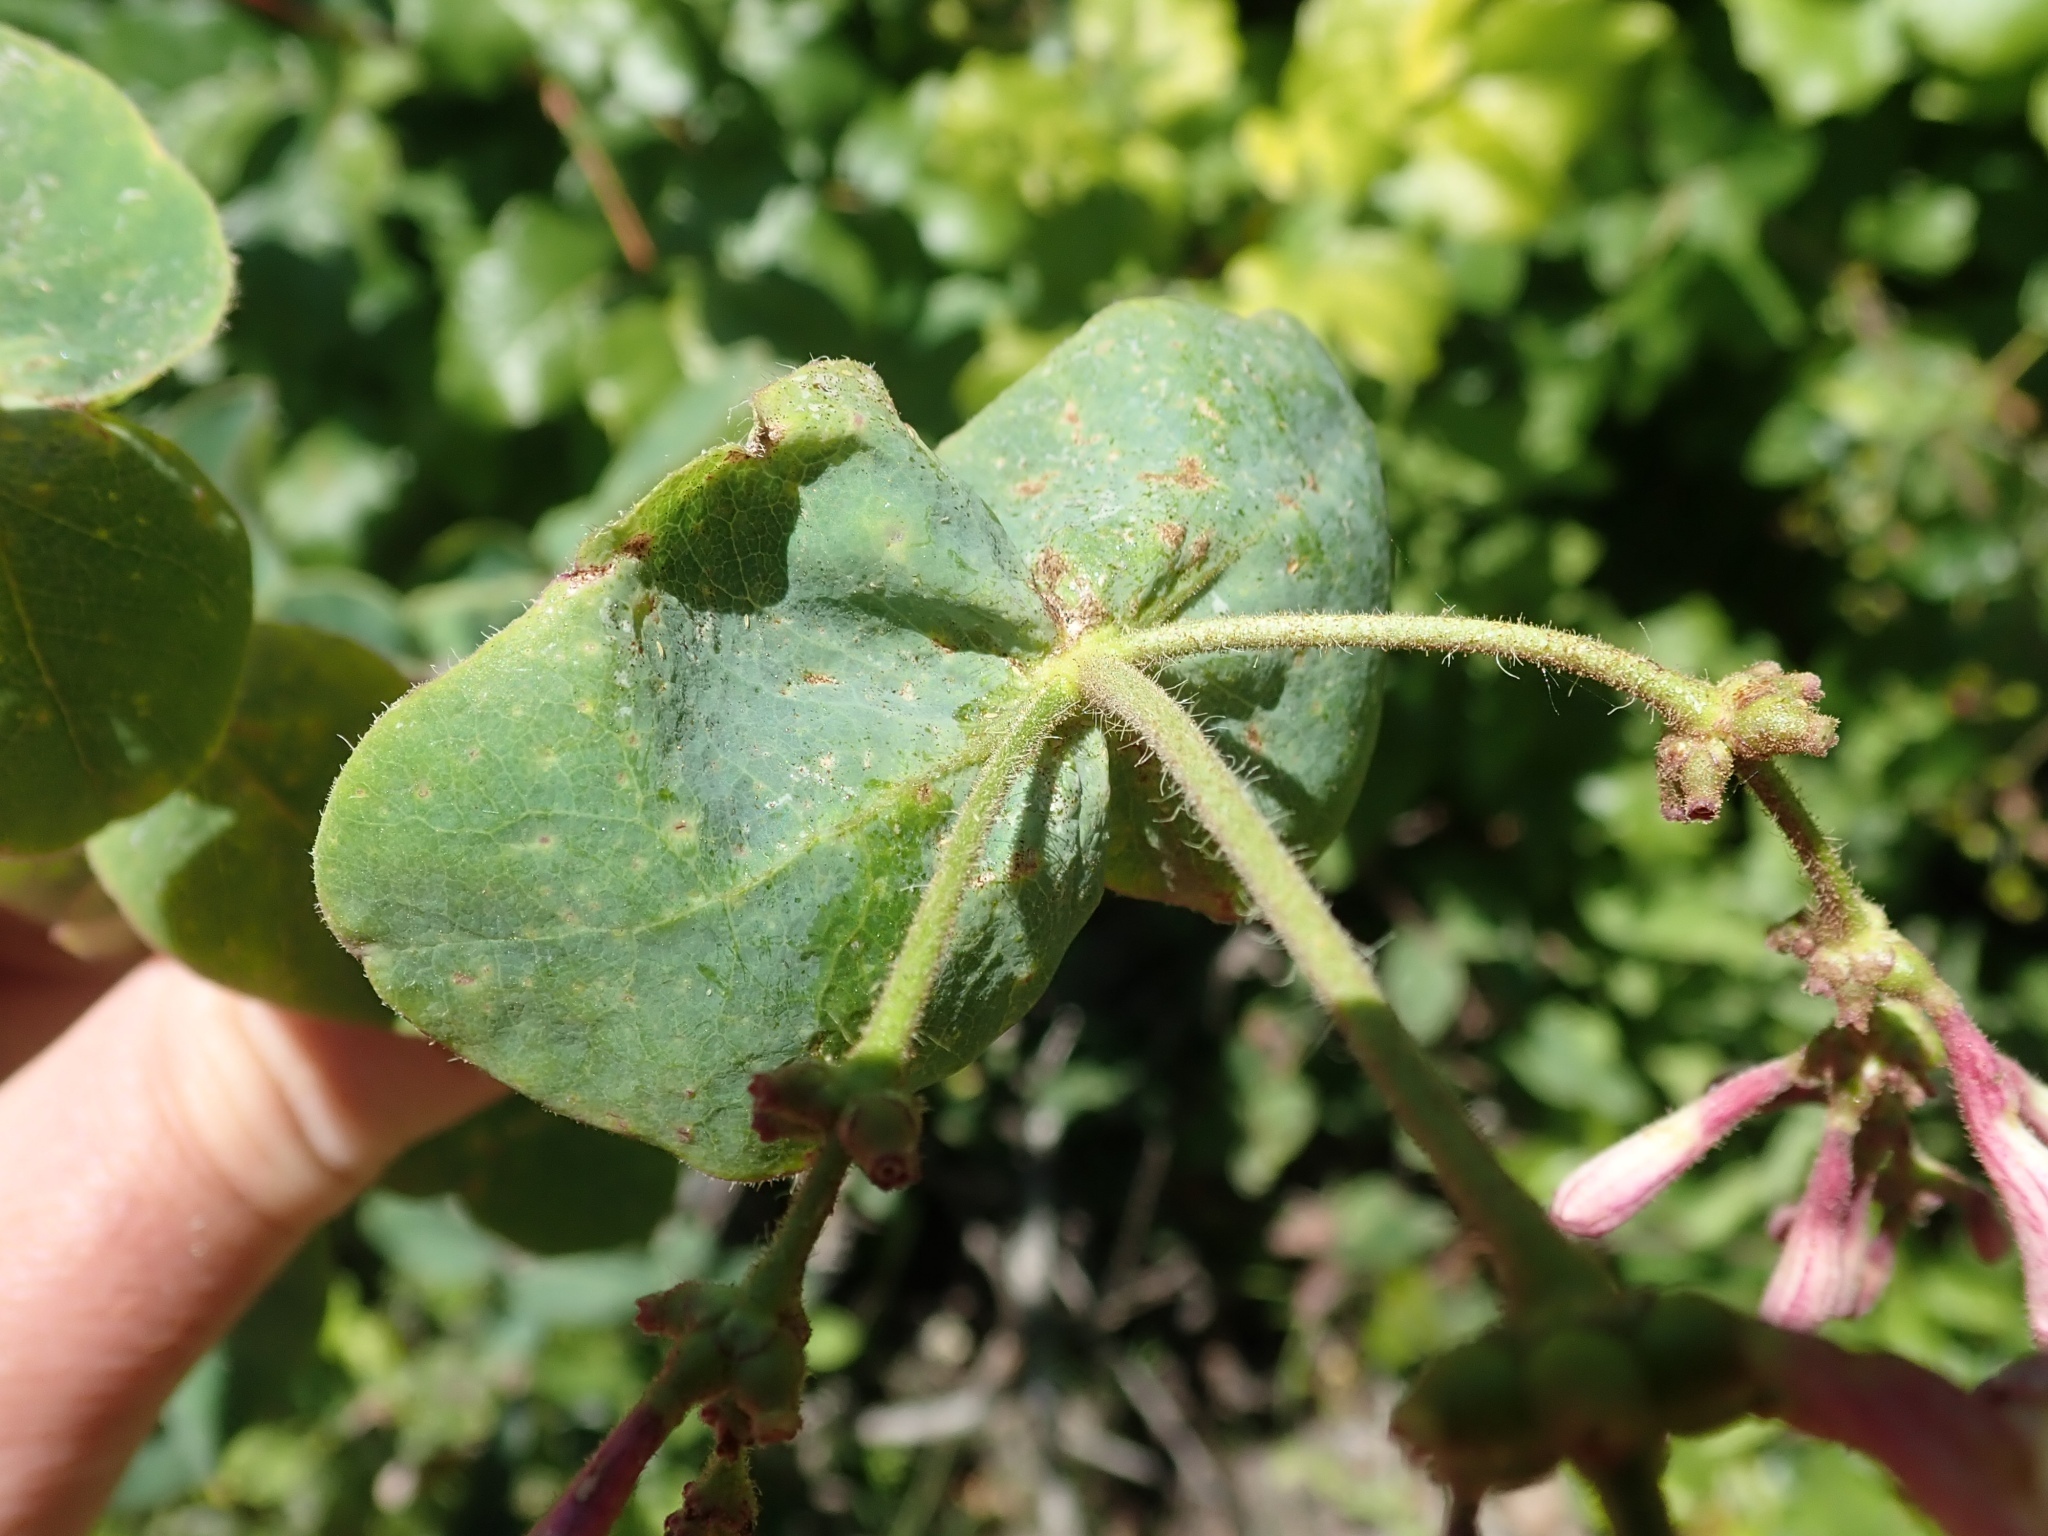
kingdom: Plantae
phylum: Tracheophyta
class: Magnoliopsida
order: Dipsacales
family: Caprifoliaceae
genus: Lonicera
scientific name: Lonicera hispidula
